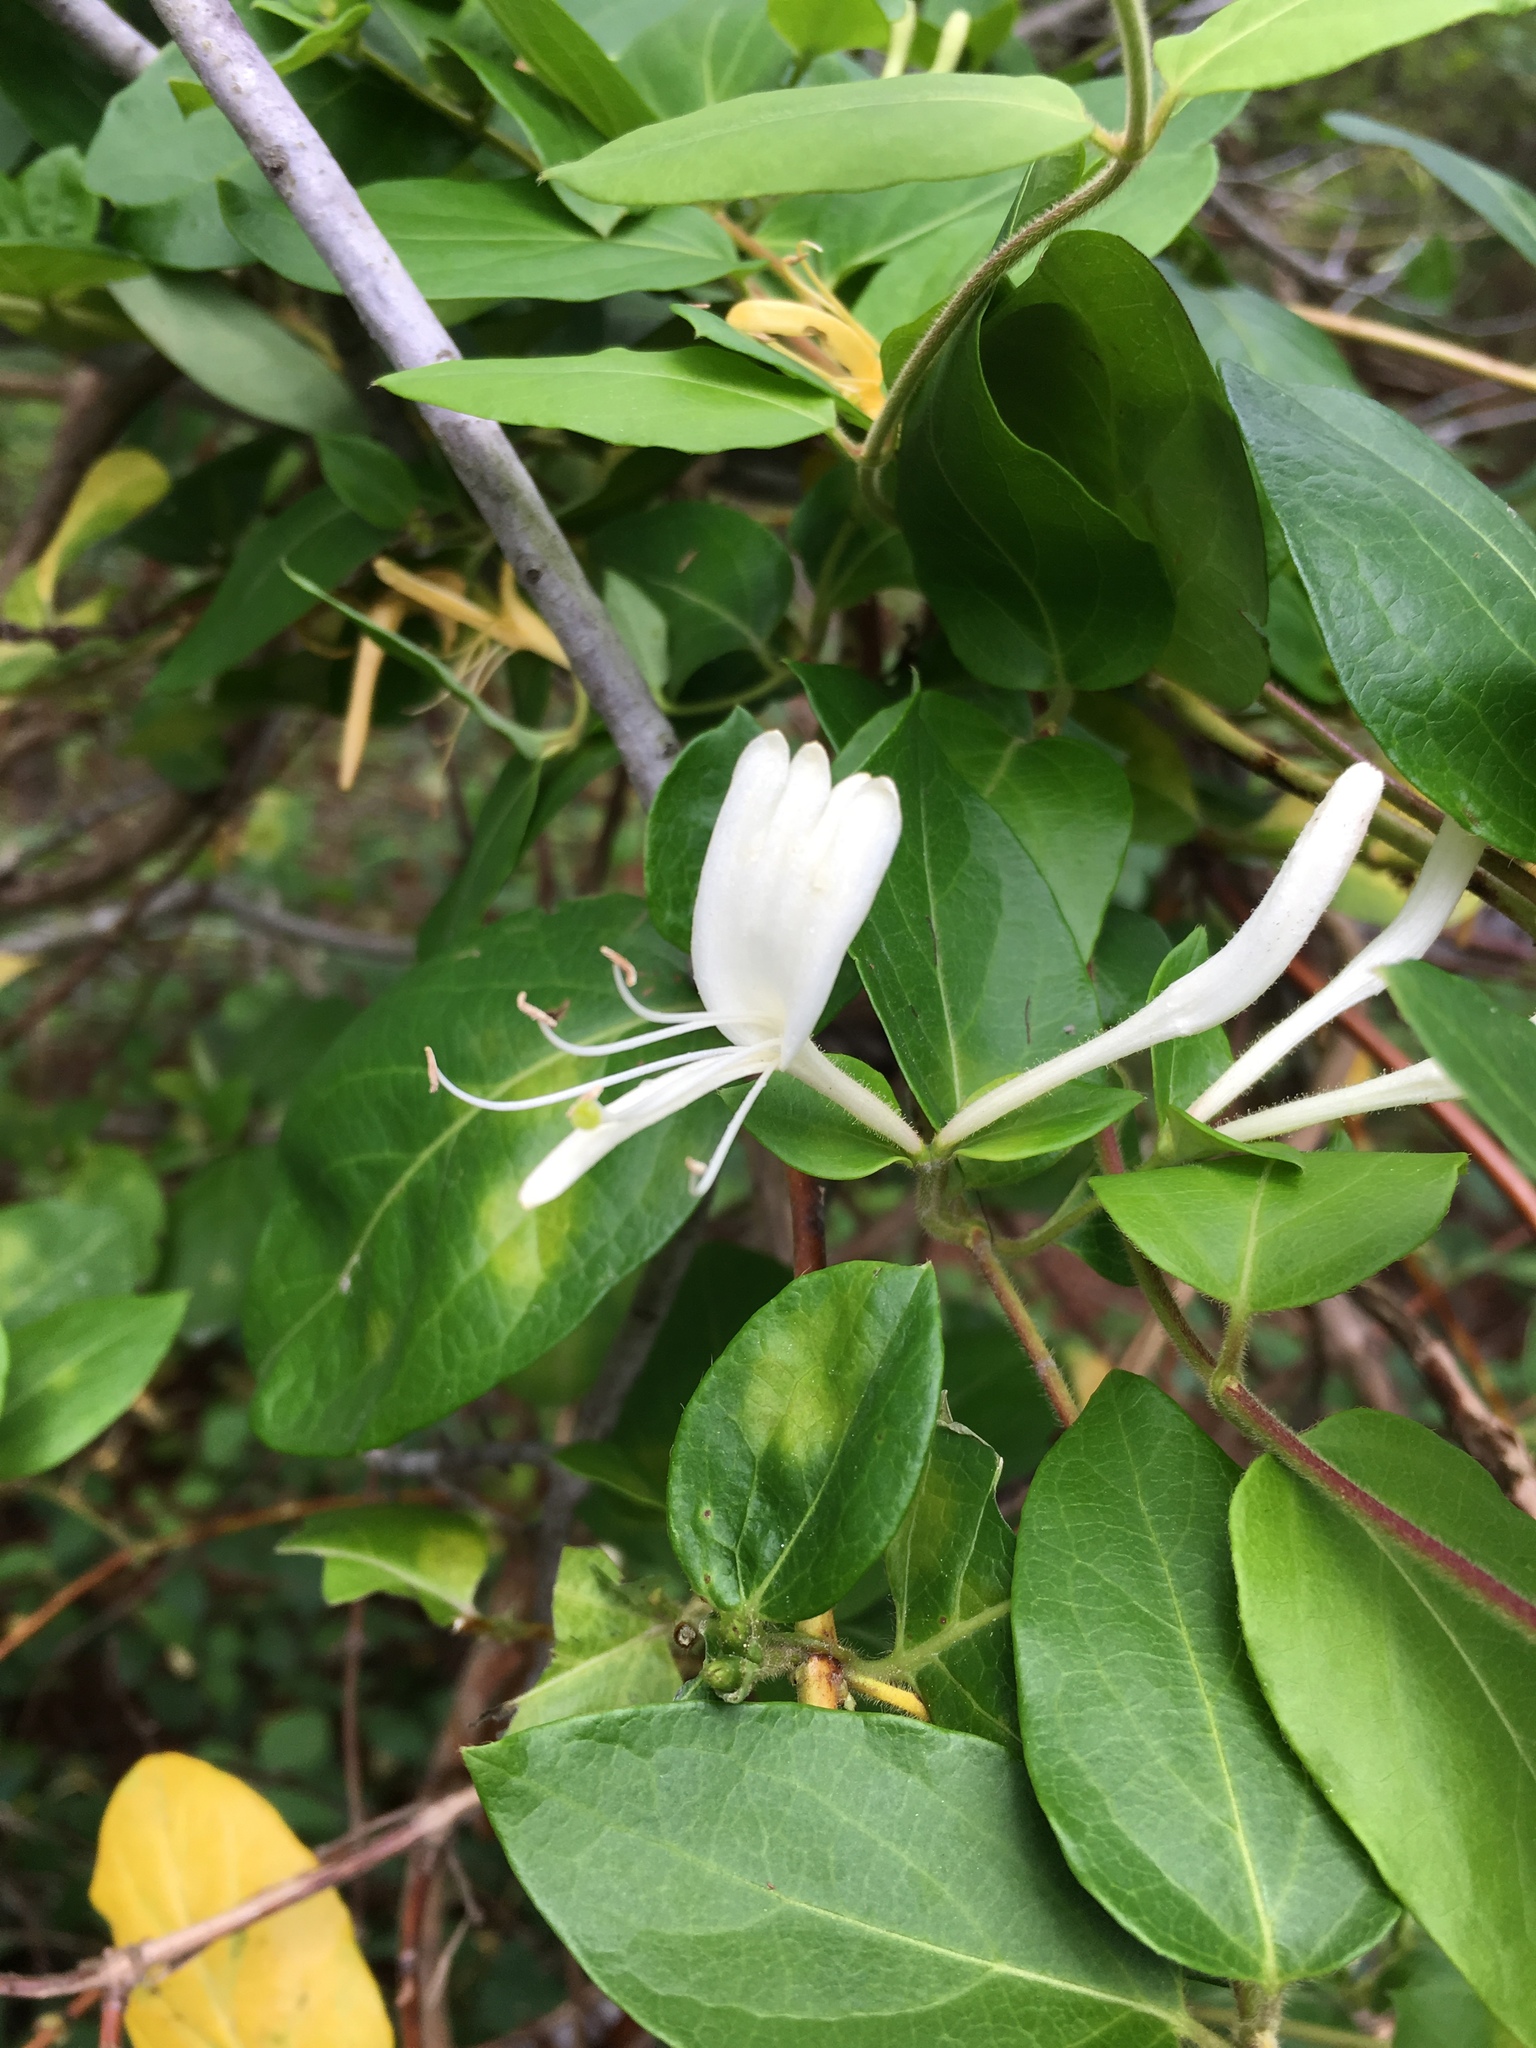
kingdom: Plantae
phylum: Tracheophyta
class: Magnoliopsida
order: Dipsacales
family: Caprifoliaceae
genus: Lonicera
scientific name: Lonicera japonica
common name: Japanese honeysuckle
